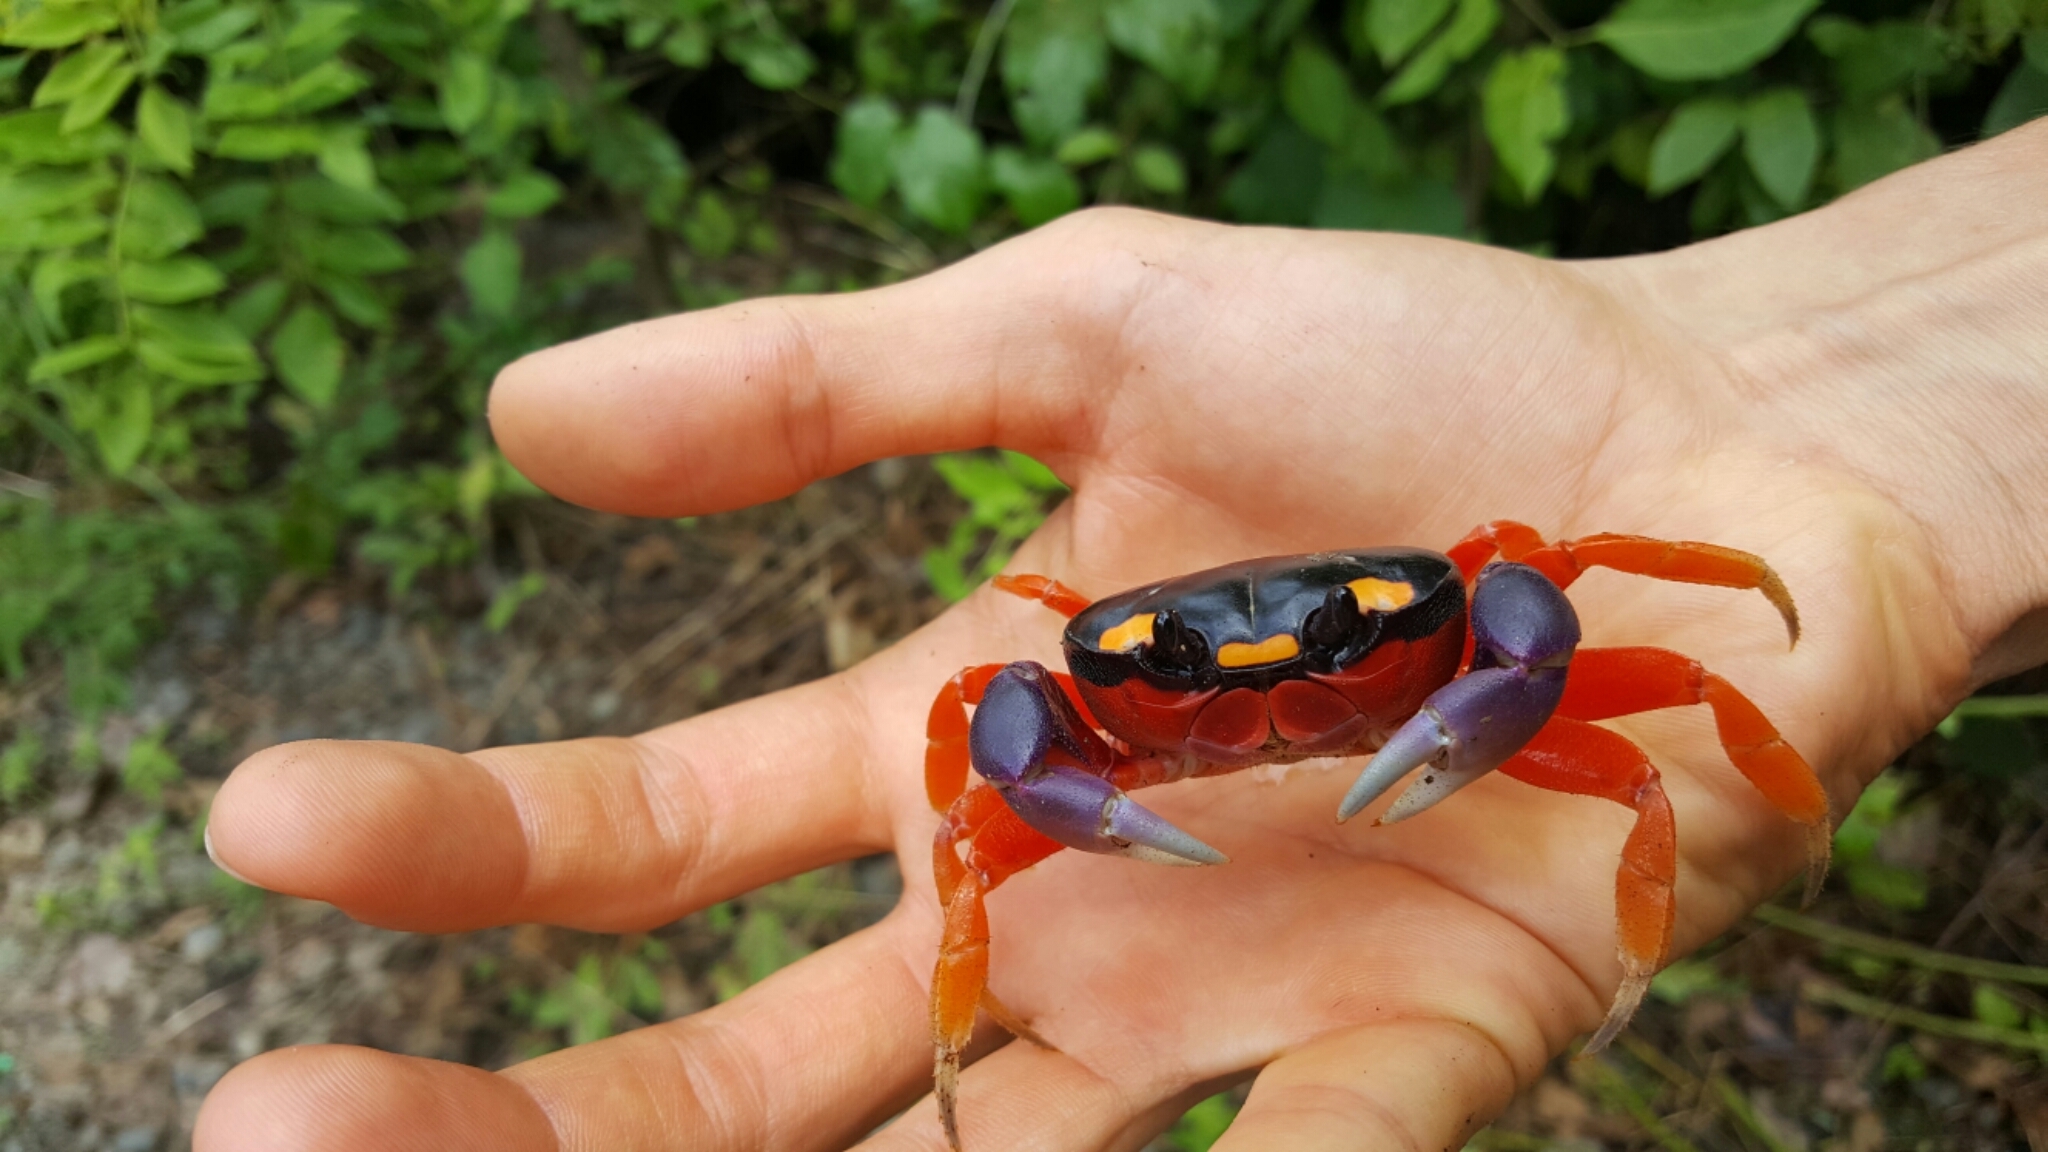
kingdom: Animalia
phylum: Arthropoda
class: Malacostraca
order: Decapoda
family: Gecarcinidae
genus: Gecarcinus
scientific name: Gecarcinus quadratus
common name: Halloween crab
